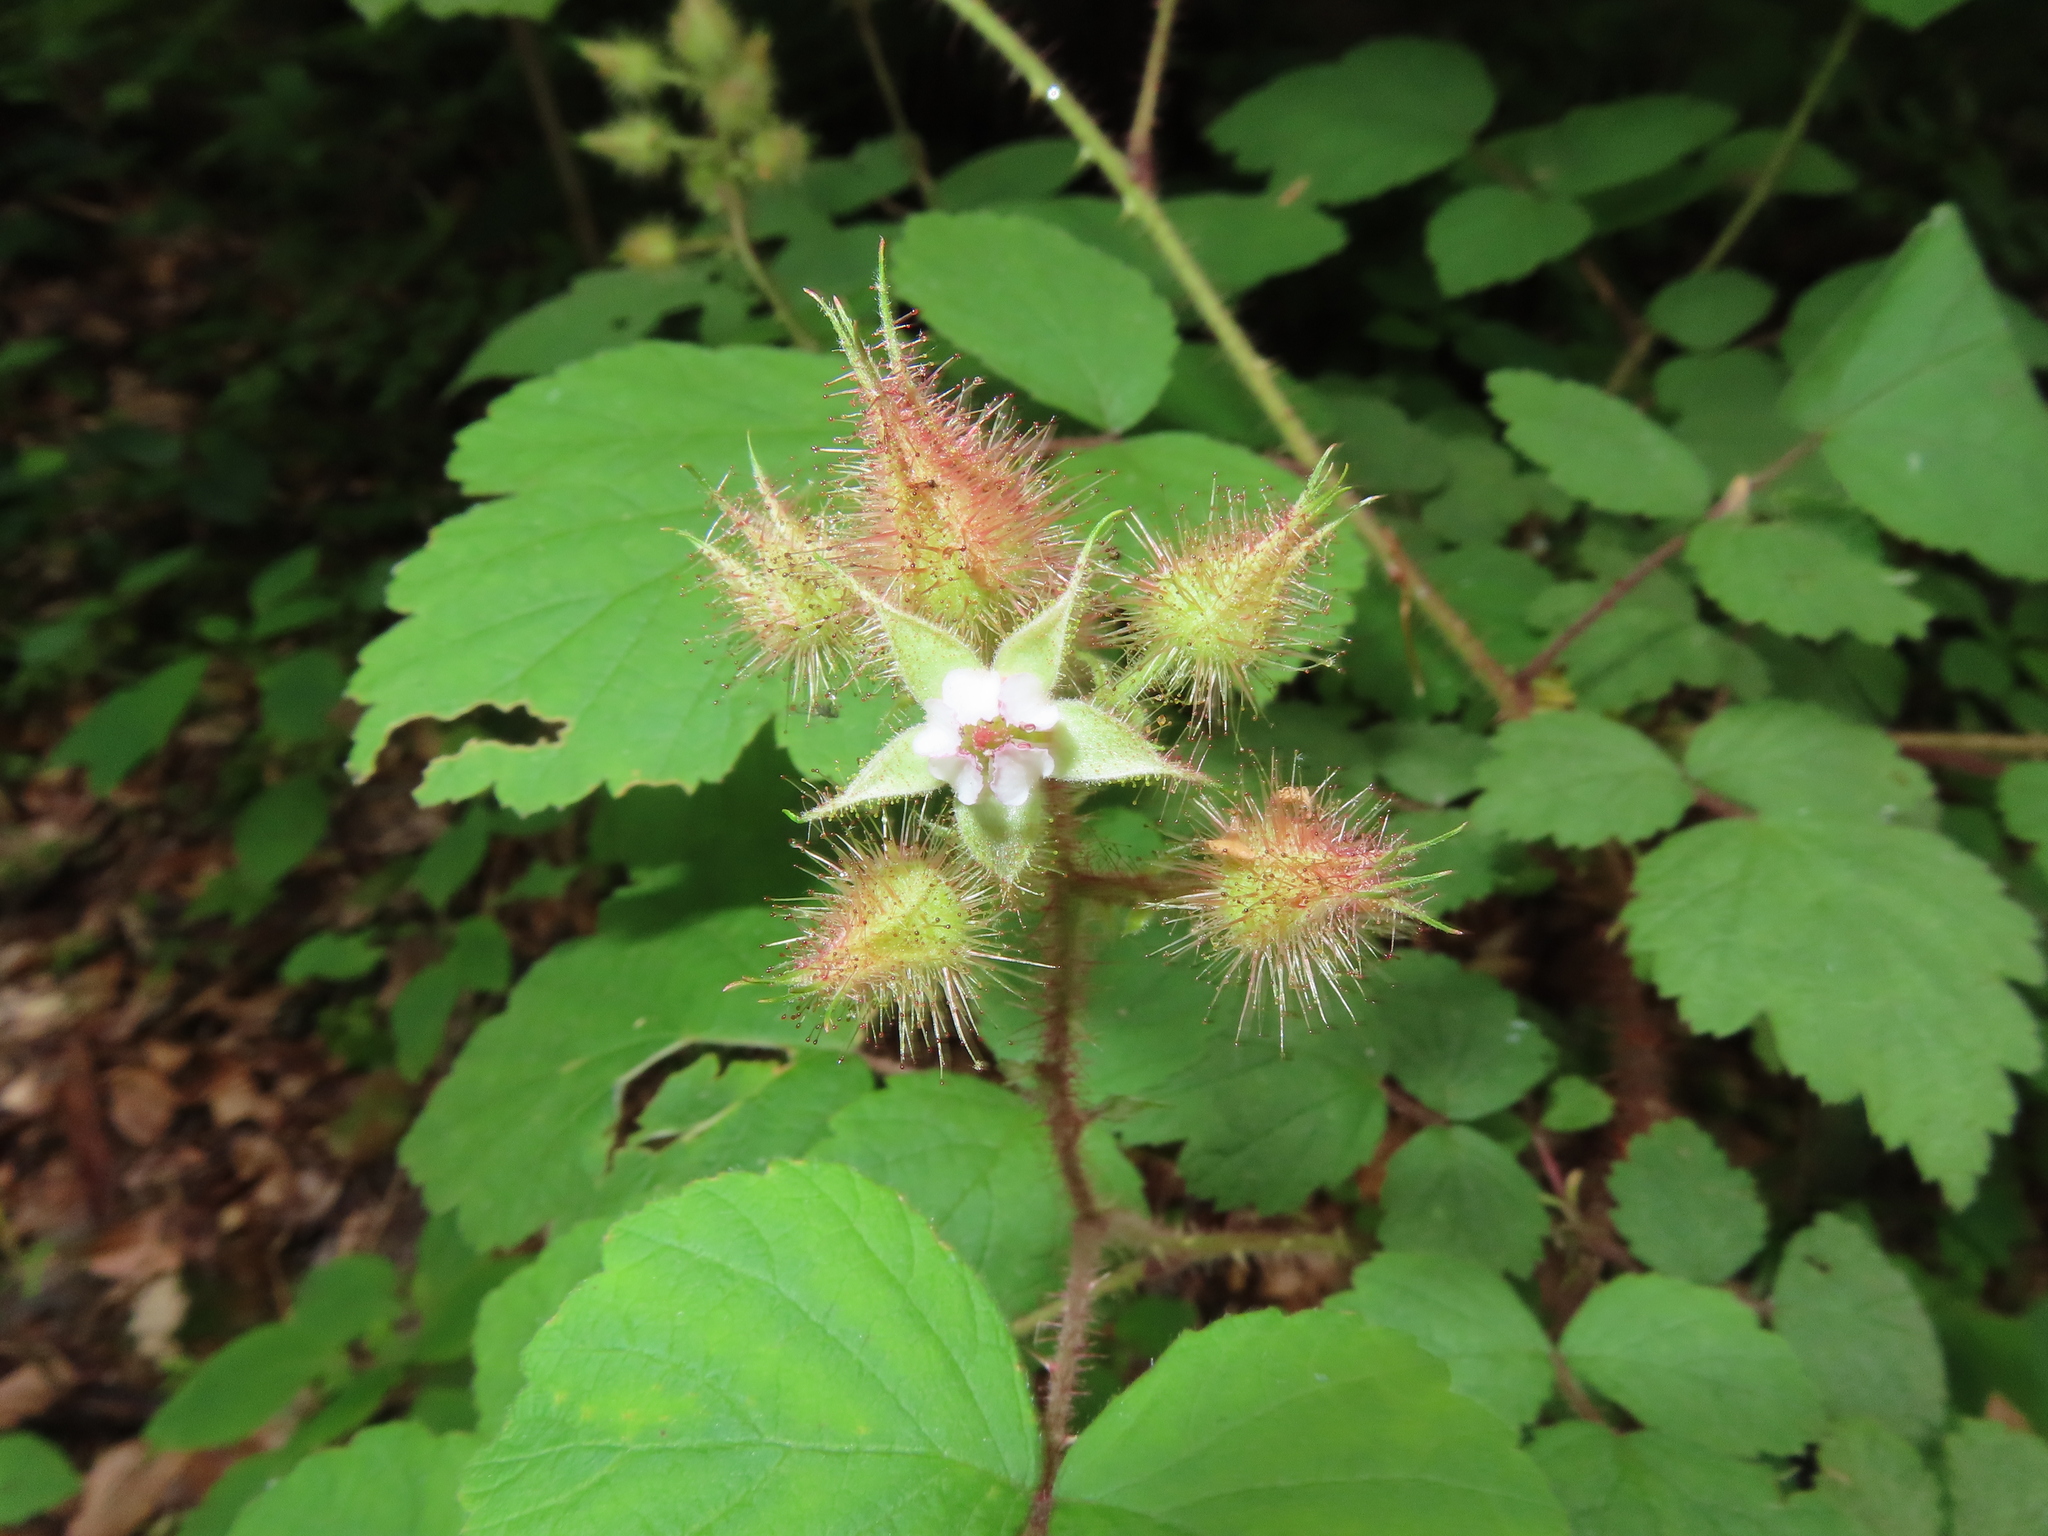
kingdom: Plantae
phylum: Tracheophyta
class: Magnoliopsida
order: Rosales
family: Rosaceae
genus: Rubus
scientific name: Rubus phoenicolasius
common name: Japanese wineberry
